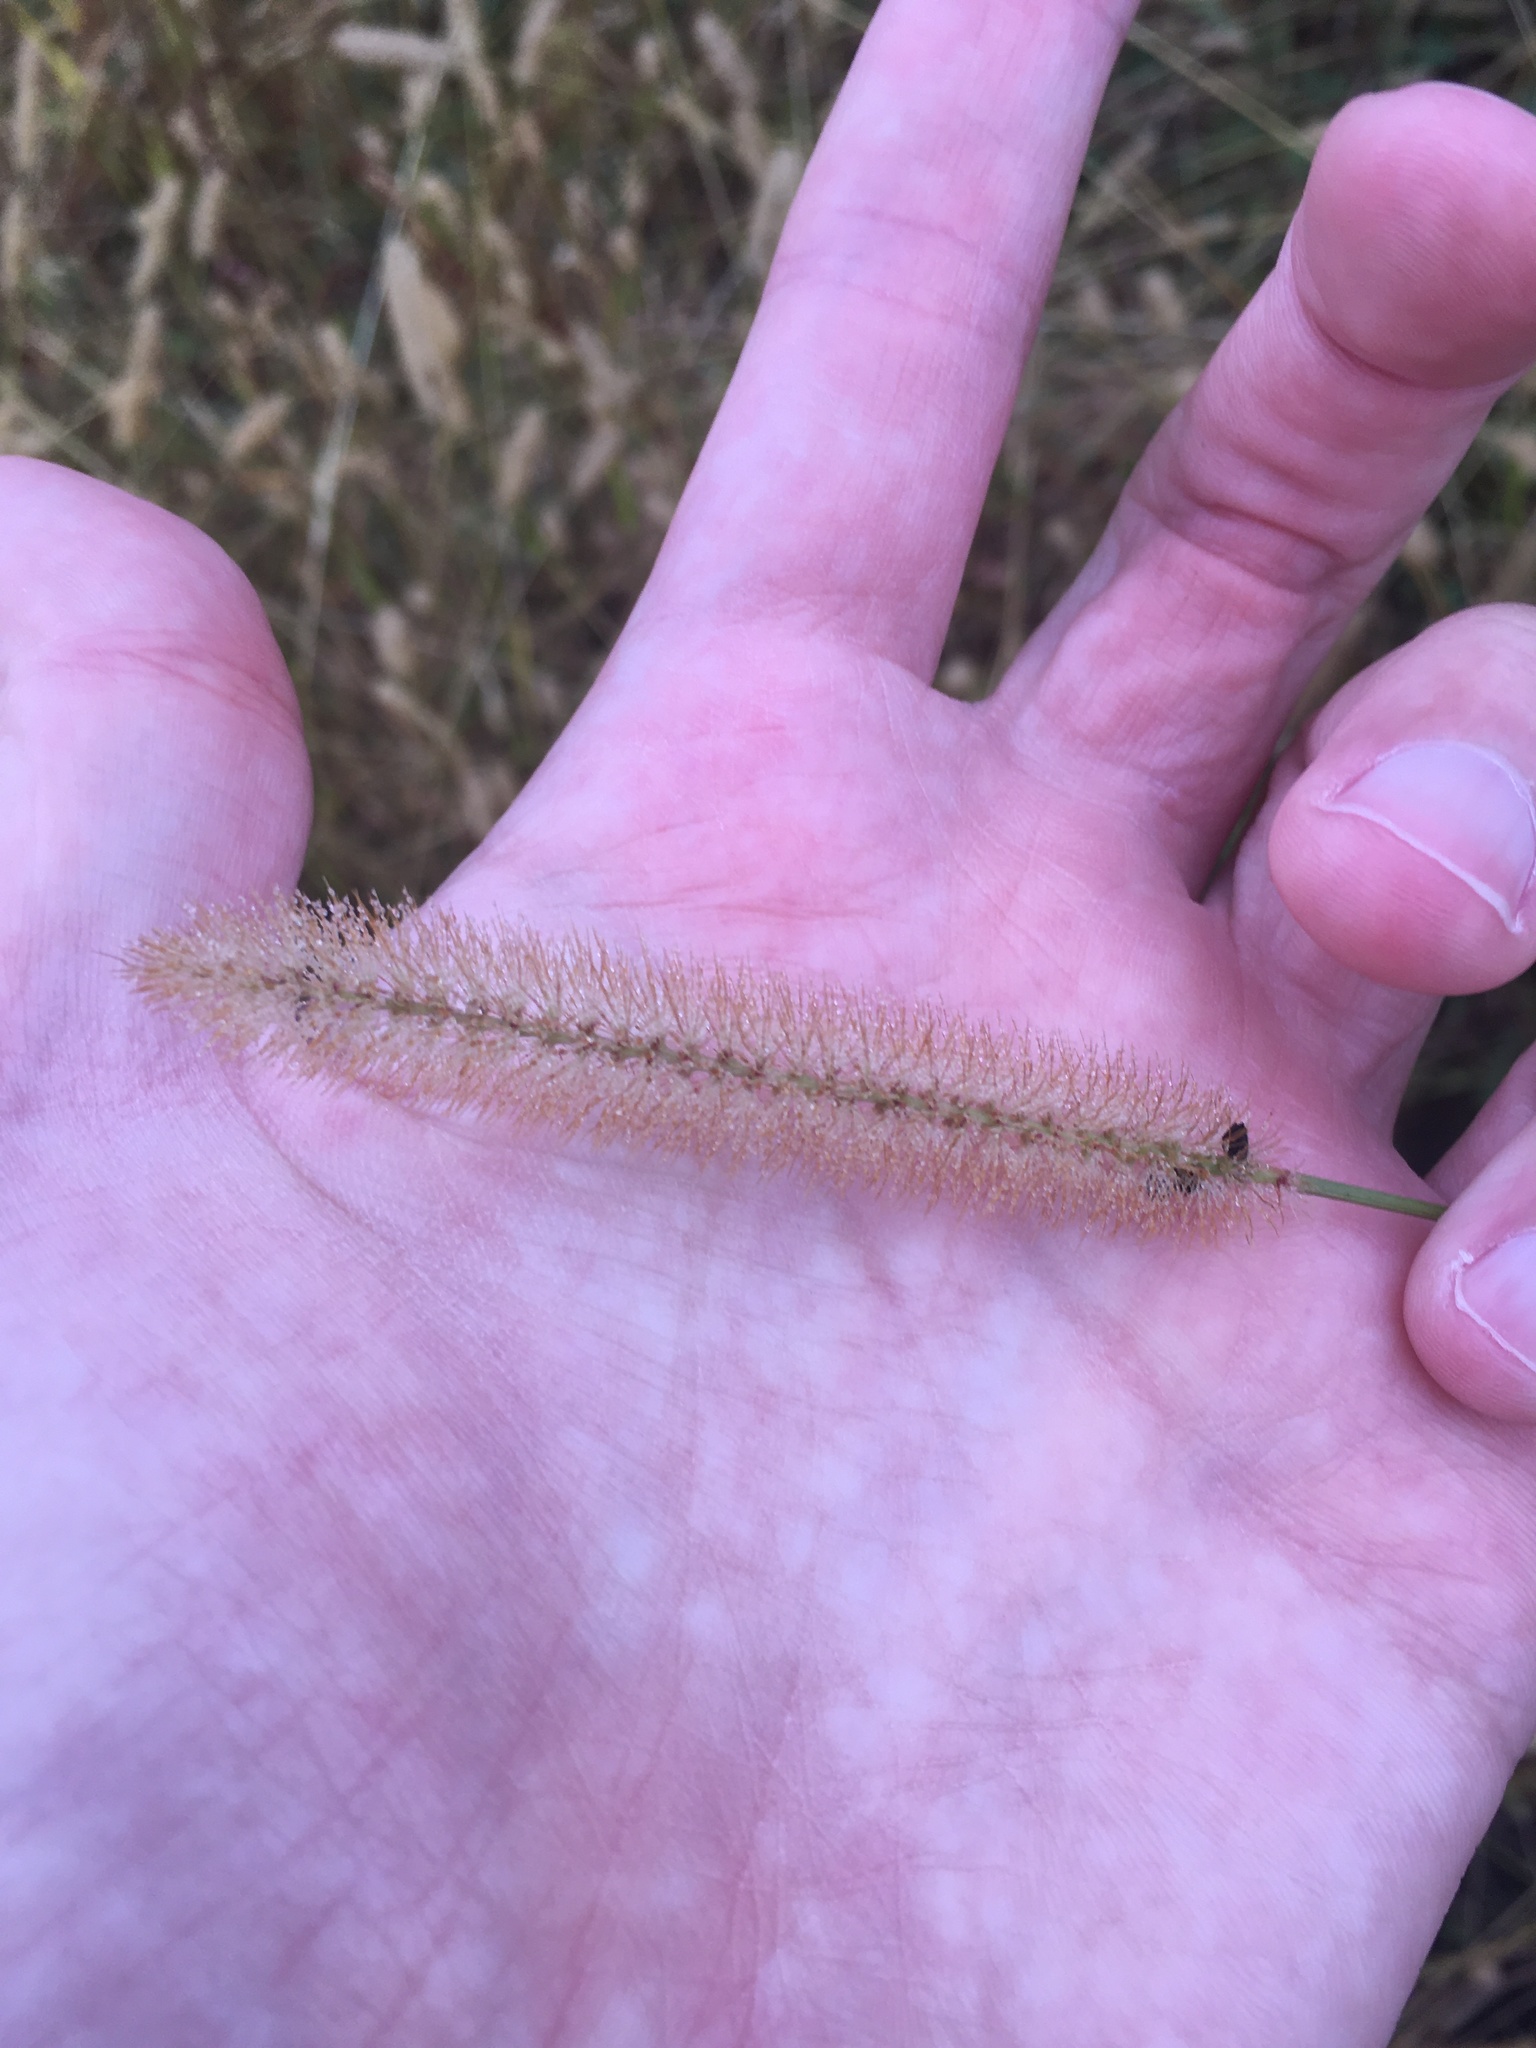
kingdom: Plantae
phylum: Tracheophyta
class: Liliopsida
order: Poales
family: Poaceae
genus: Setaria
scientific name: Setaria pumila
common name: Yellow bristle-grass
